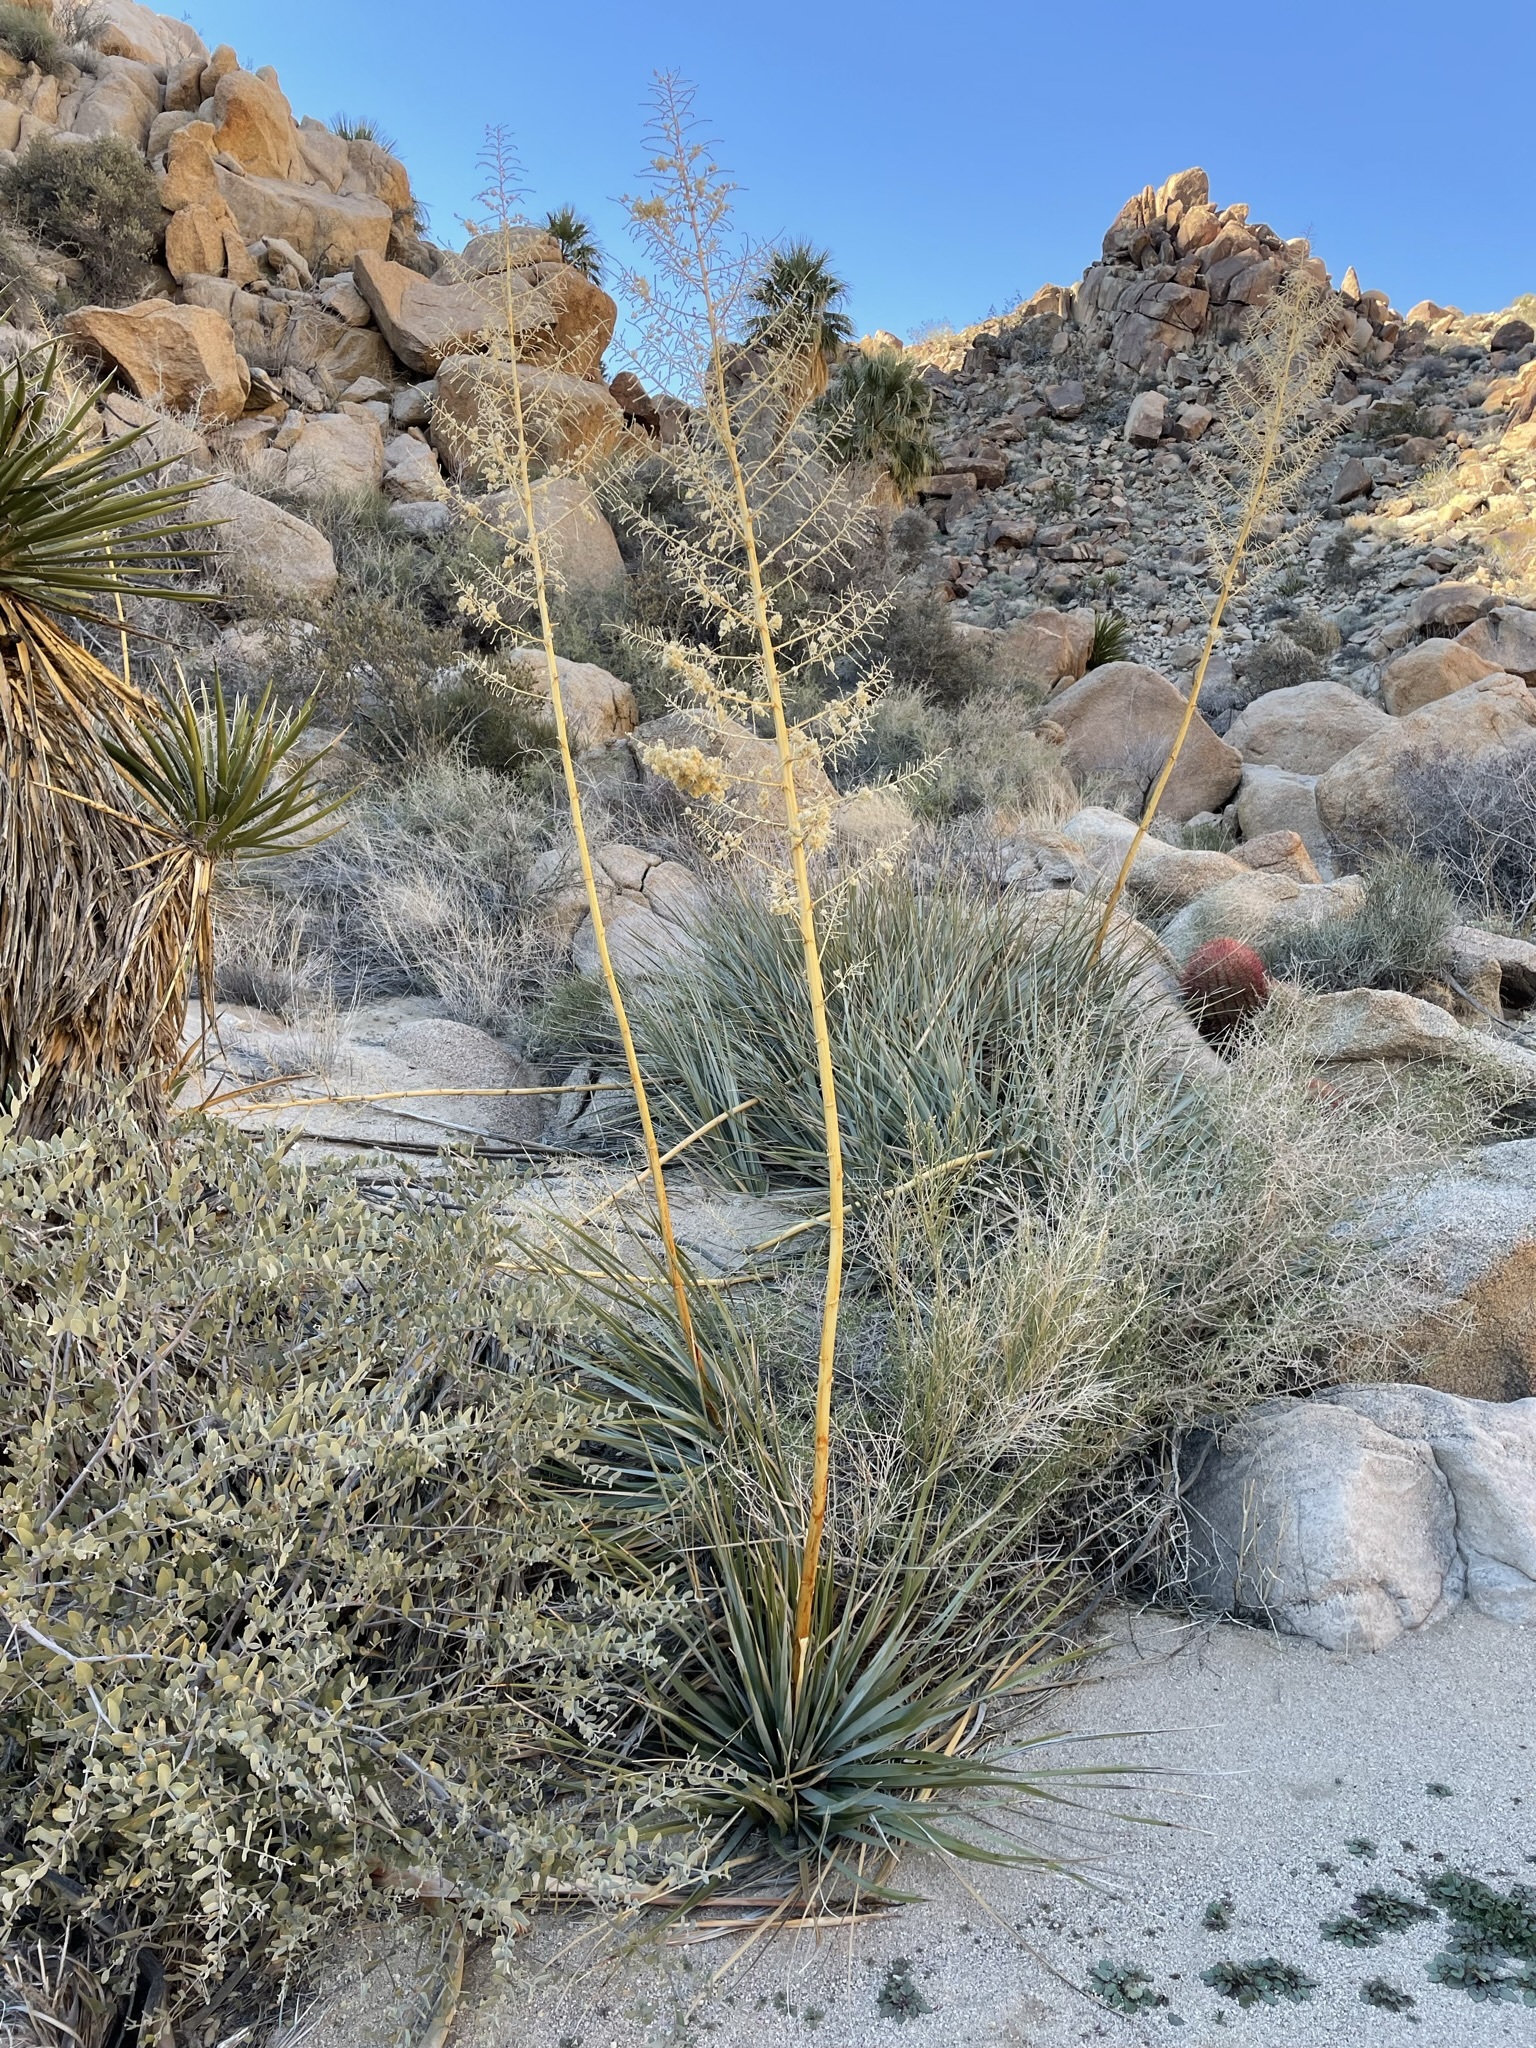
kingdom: Plantae
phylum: Tracheophyta
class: Liliopsida
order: Asparagales
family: Asparagaceae
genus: Nolina
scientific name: Nolina bigelovii
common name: Bigelow bear-grass
